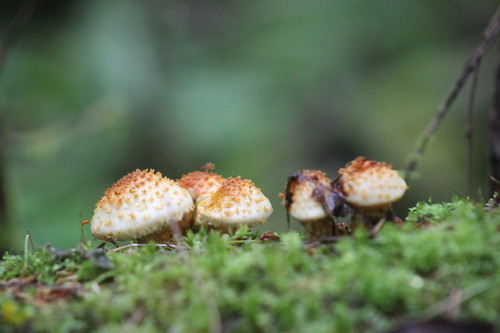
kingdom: Fungi
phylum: Basidiomycota
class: Agaricomycetes
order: Agaricales
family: Strophariaceae
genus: Pholiota
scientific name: Pholiota
